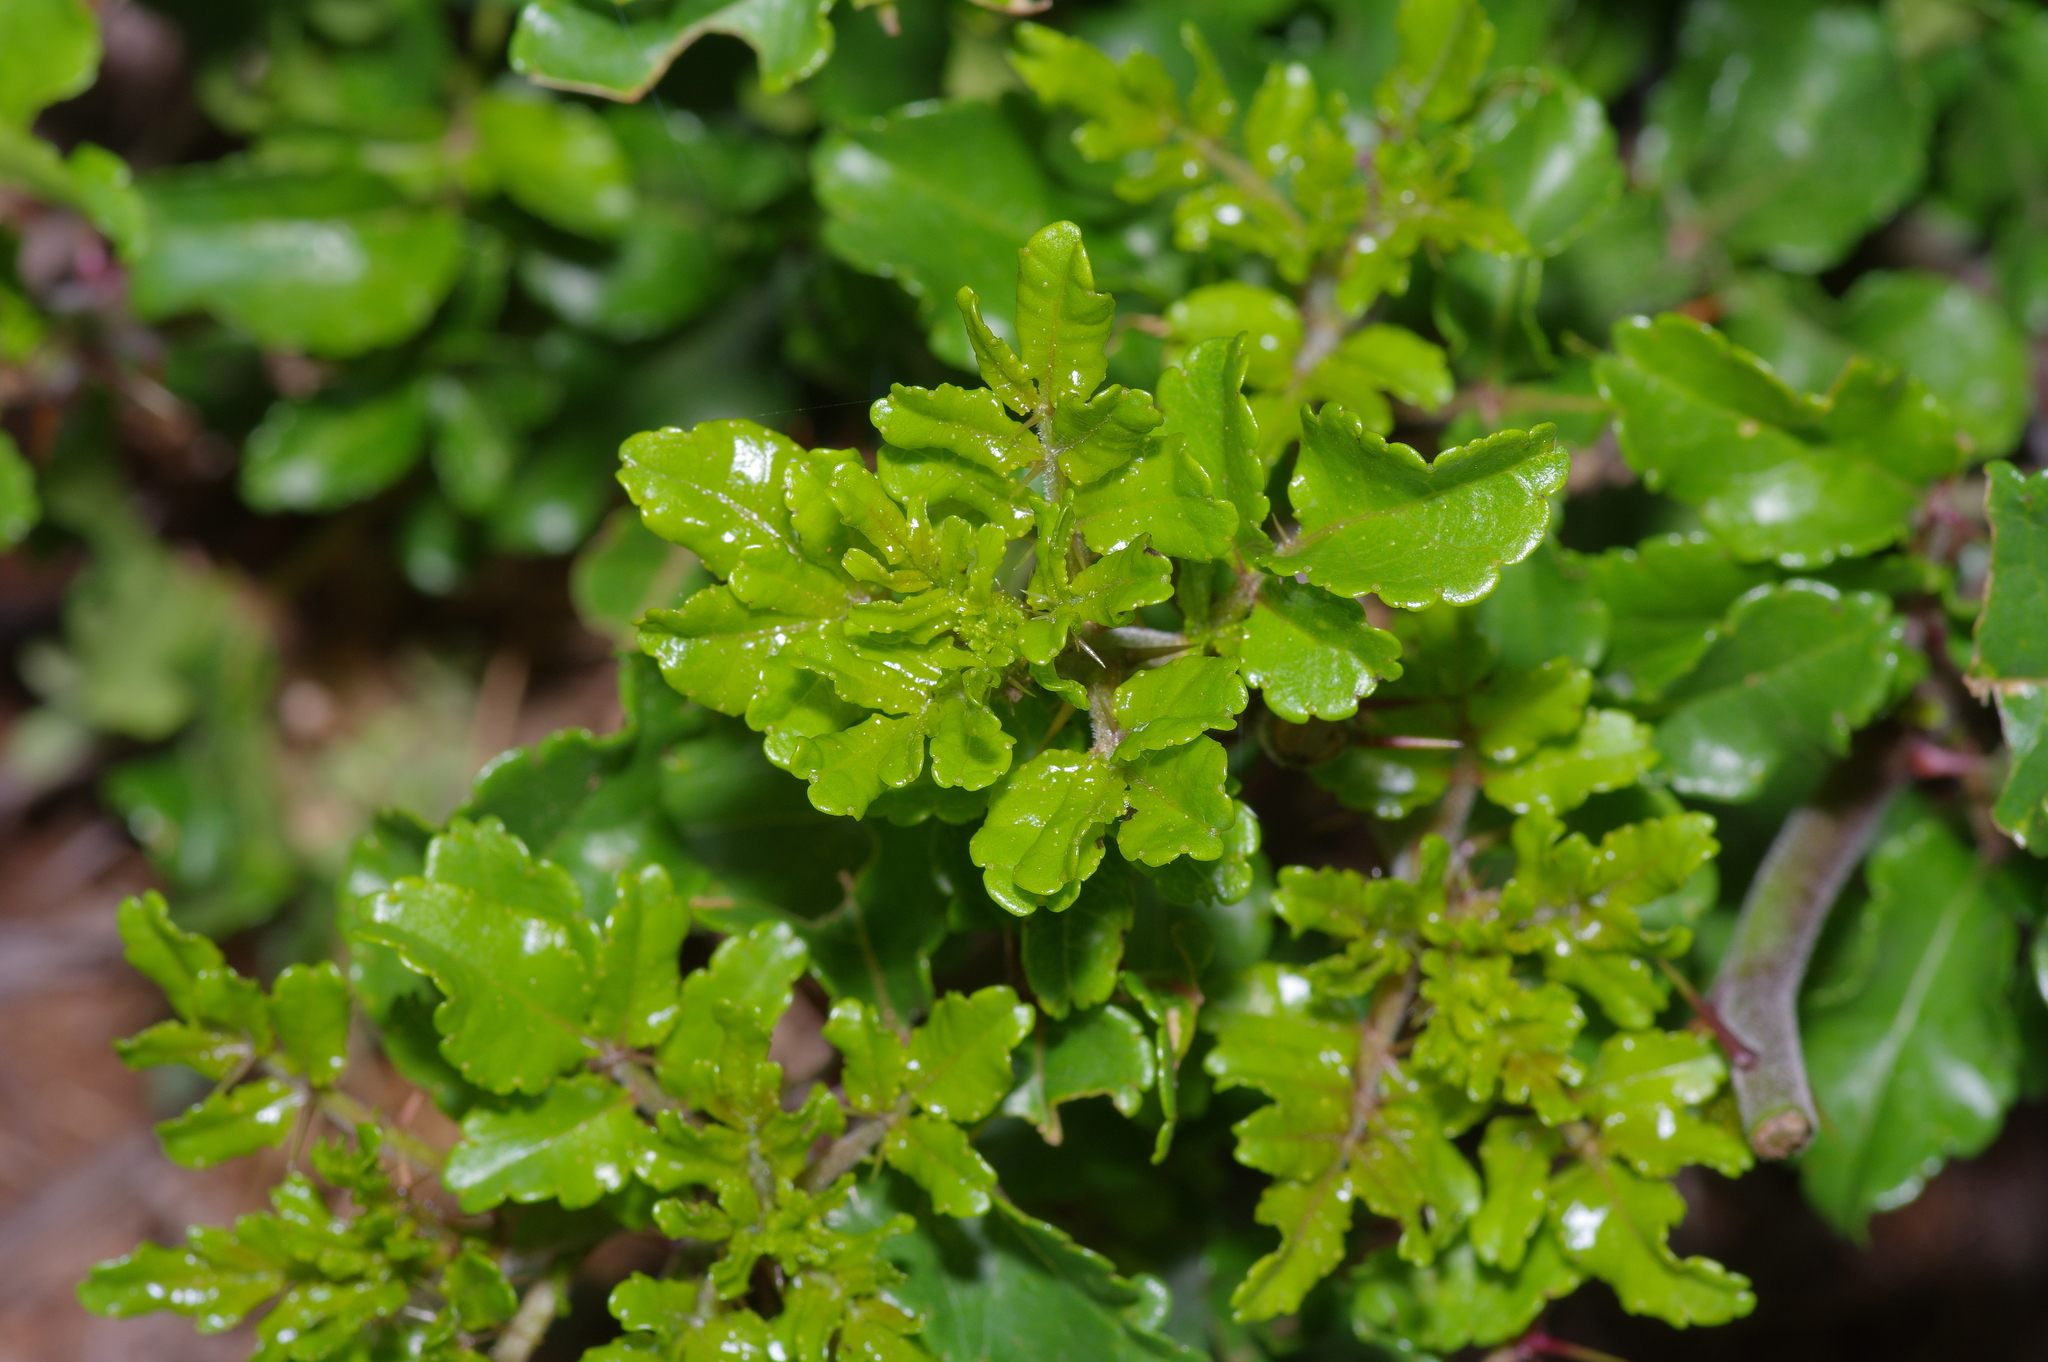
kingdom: Plantae
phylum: Tracheophyta
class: Magnoliopsida
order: Sapindales
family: Rutaceae
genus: Zanthoxylum
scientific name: Zanthoxylum clava-herculis
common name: Hercules'-club
